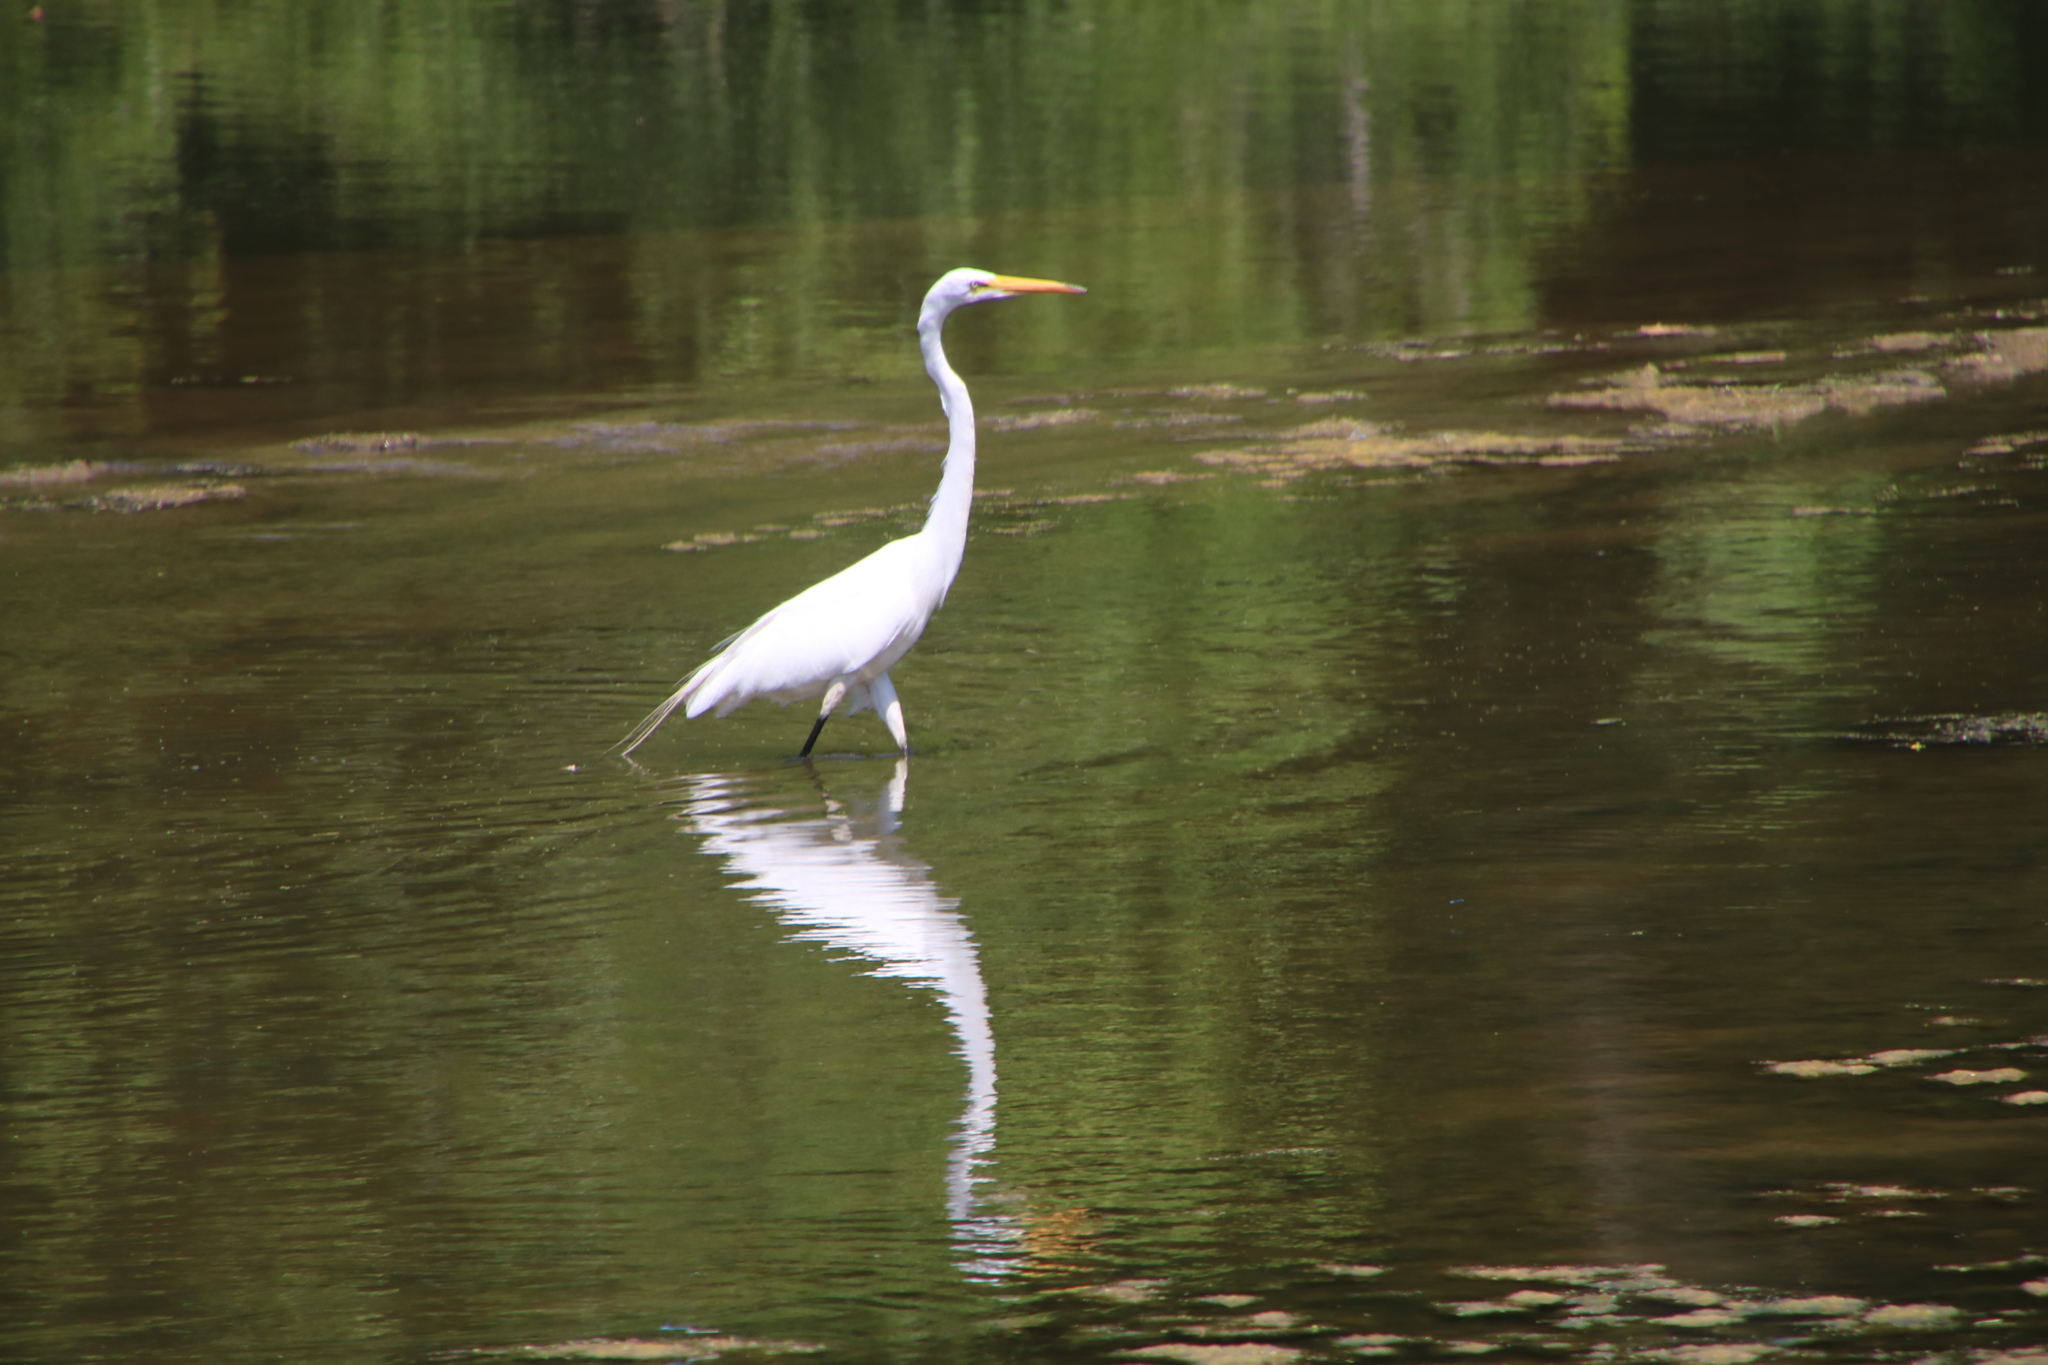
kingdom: Animalia
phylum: Chordata
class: Aves
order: Pelecaniformes
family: Ardeidae
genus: Ardea
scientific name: Ardea alba
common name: Great egret
